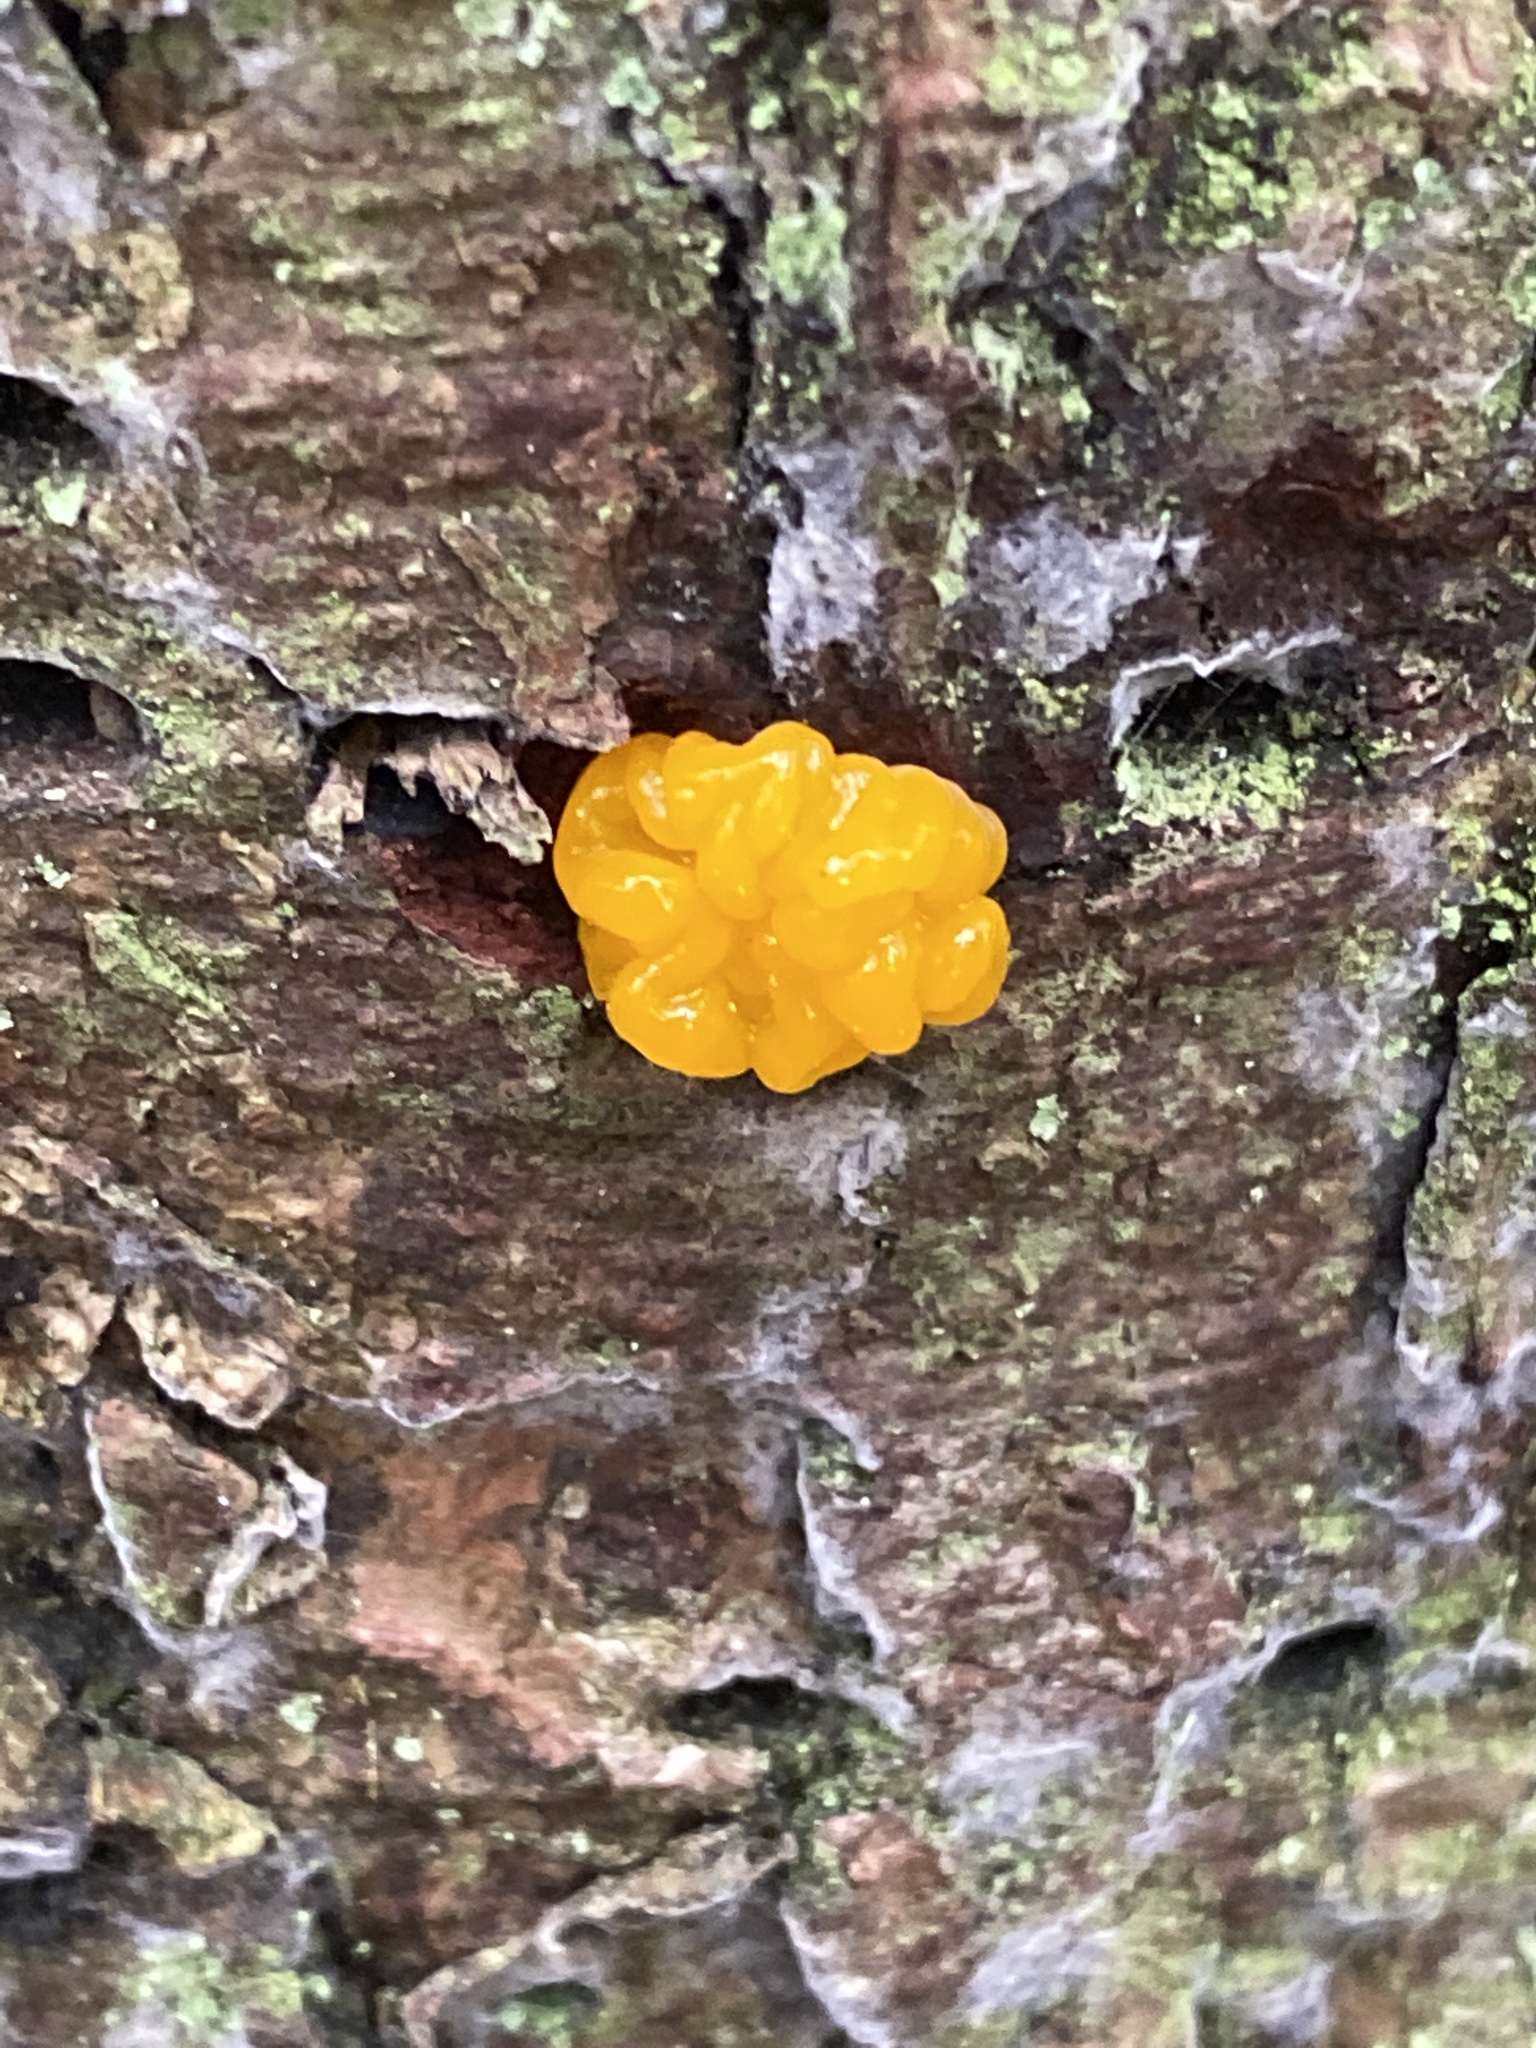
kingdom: Fungi
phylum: Basidiomycota
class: Dacrymycetes
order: Dacrymycetales
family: Dacrymycetaceae
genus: Dacrymyces
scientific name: Dacrymyces chrysospermus
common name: Orange jelly spot
